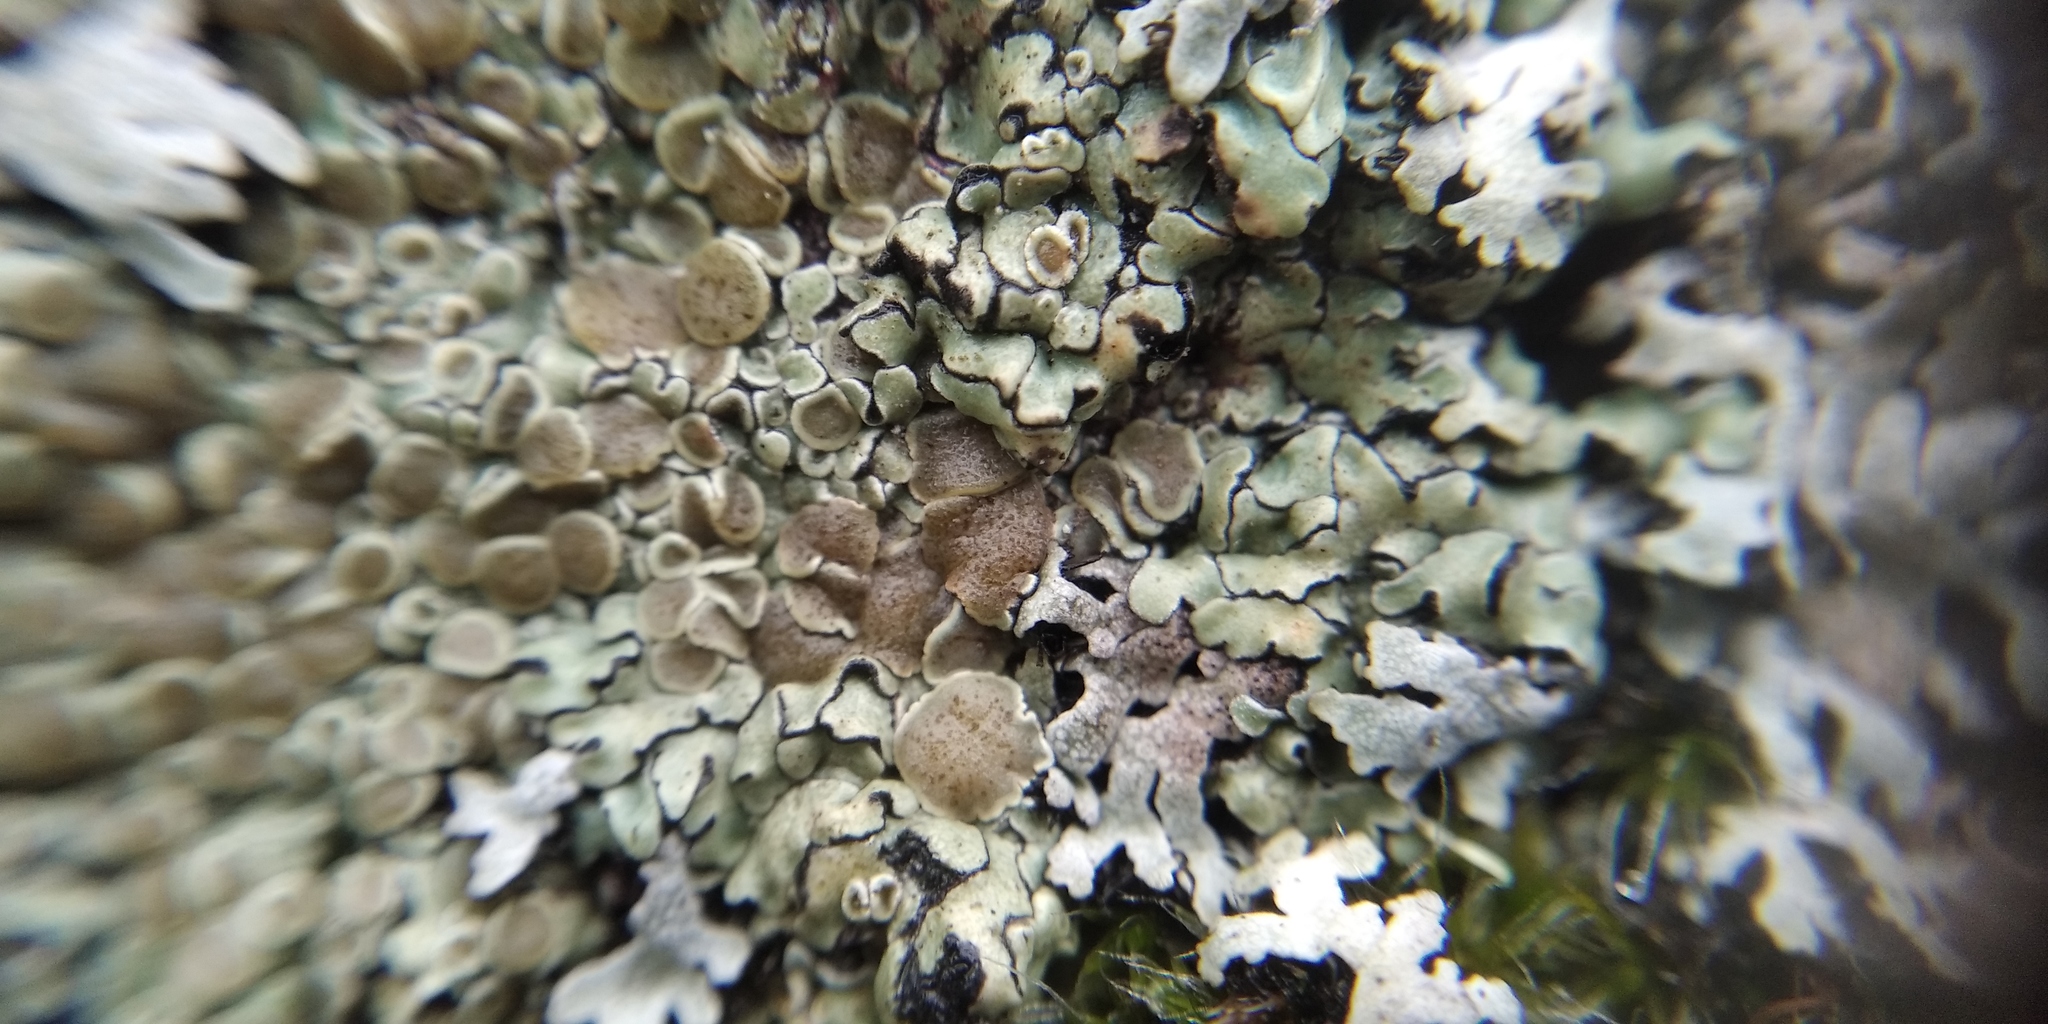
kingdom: Fungi
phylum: Ascomycota
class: Lecanoromycetes
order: Lecanorales
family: Lecanoraceae
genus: Protoparmeliopsis
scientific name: Protoparmeliopsis muralis
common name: Stonewall rim lichen
